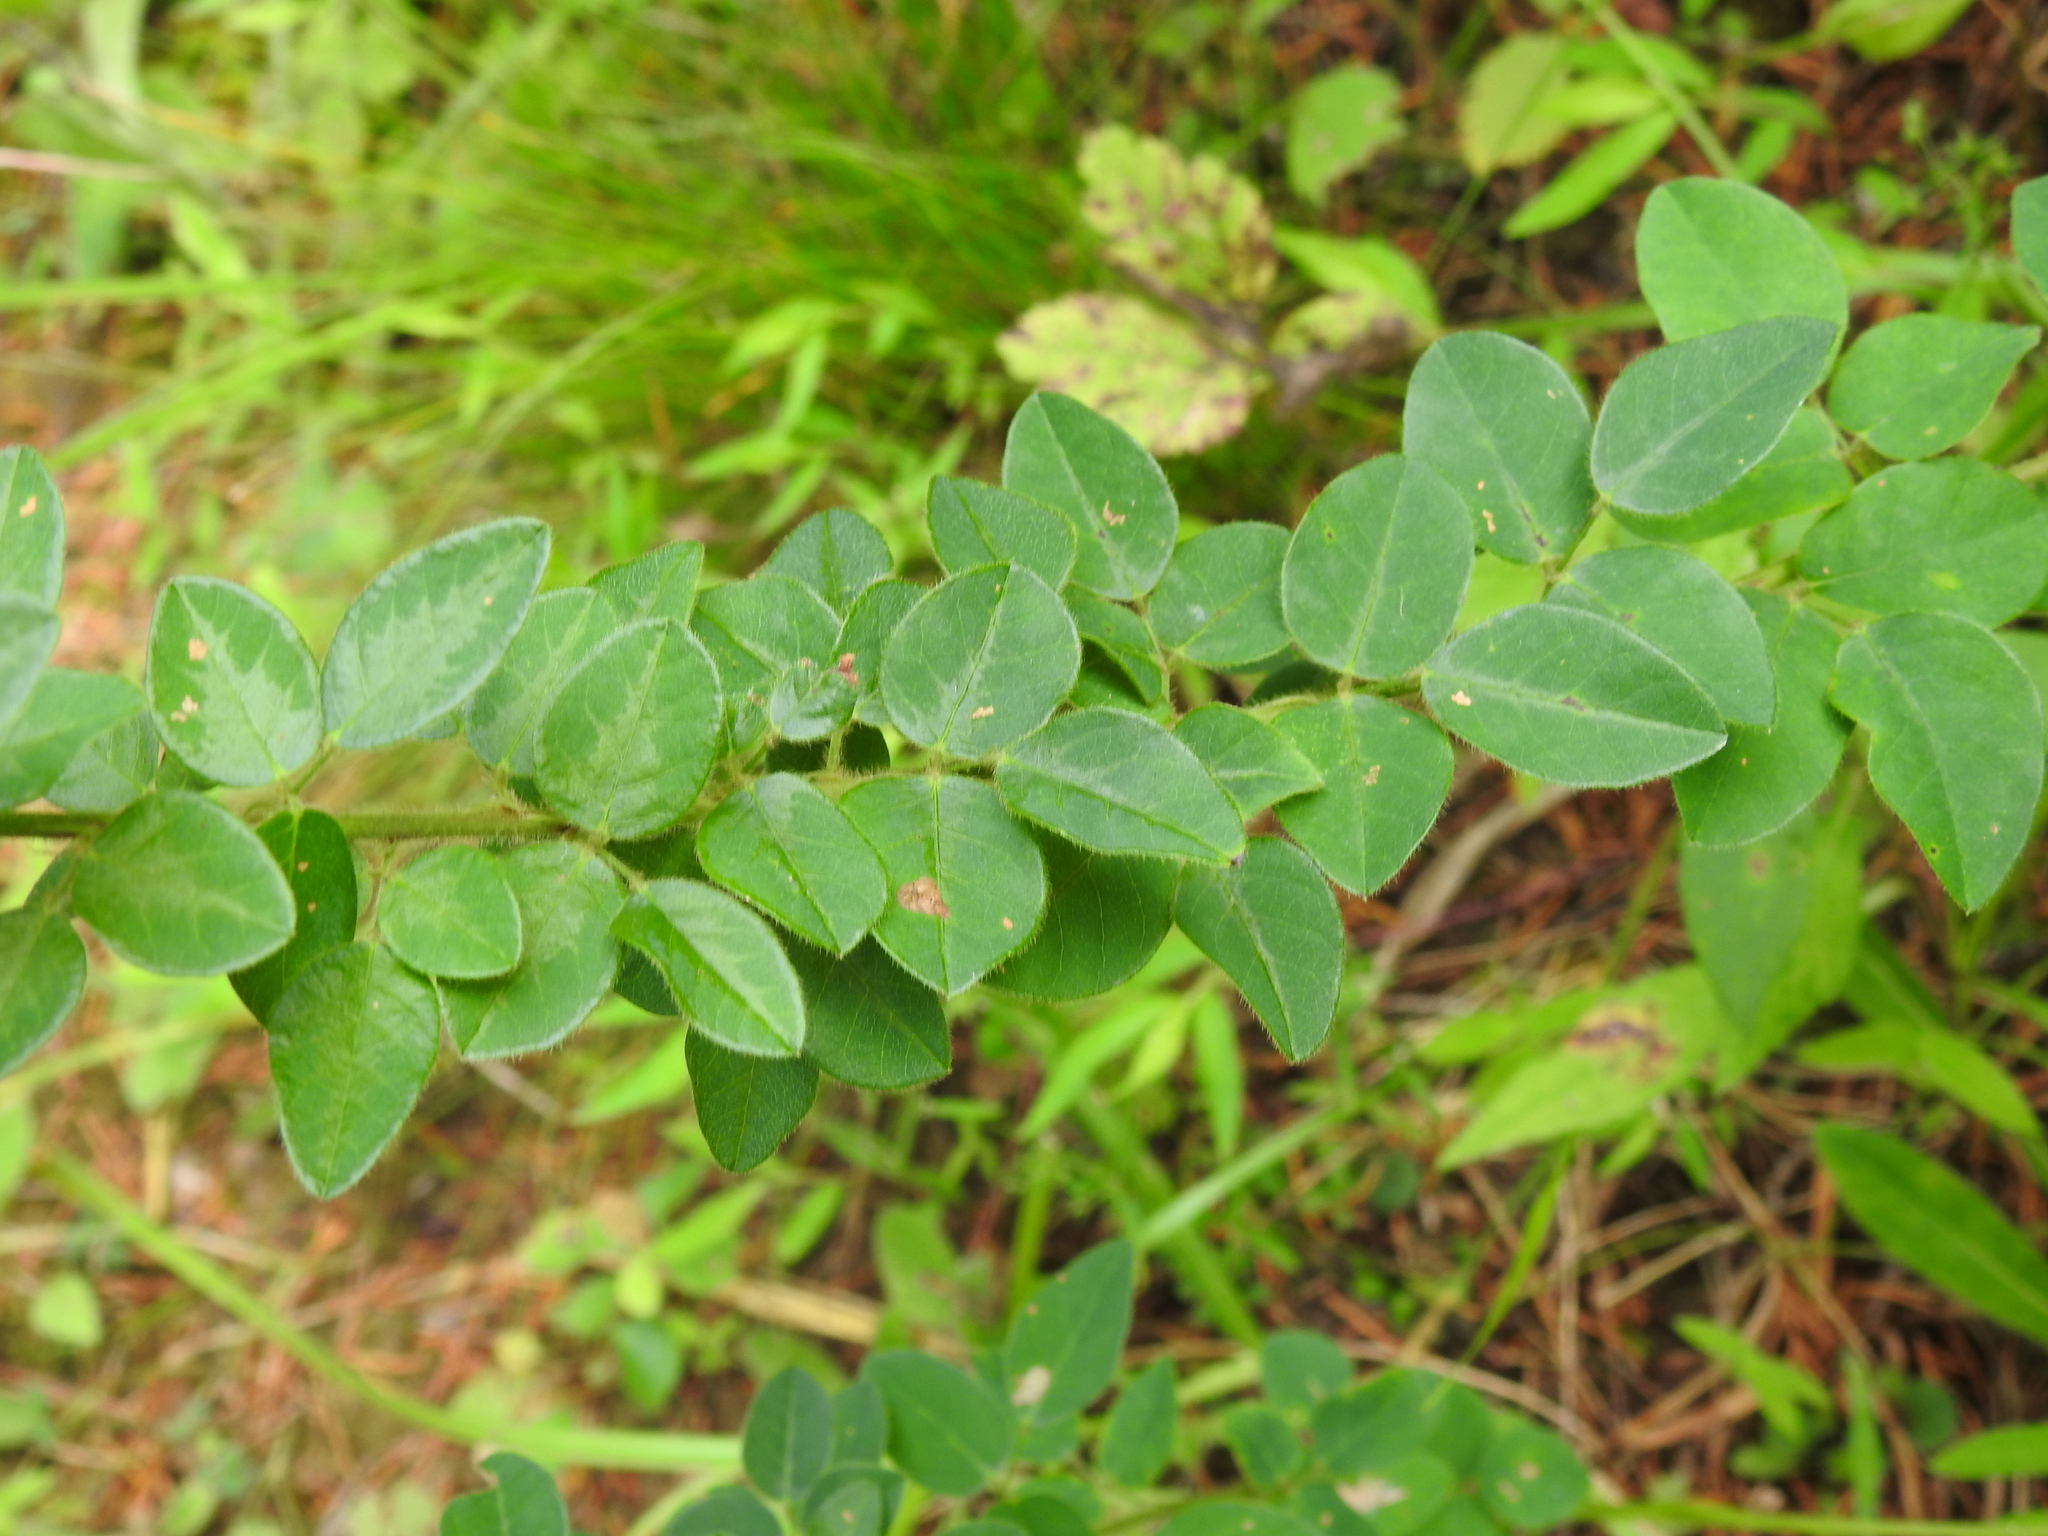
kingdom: Plantae
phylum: Tracheophyta
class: Magnoliopsida
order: Fabales
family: Fabaceae
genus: Desmodium
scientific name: Desmodium ciliare
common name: Hairy small-leaf ticktrefoil
